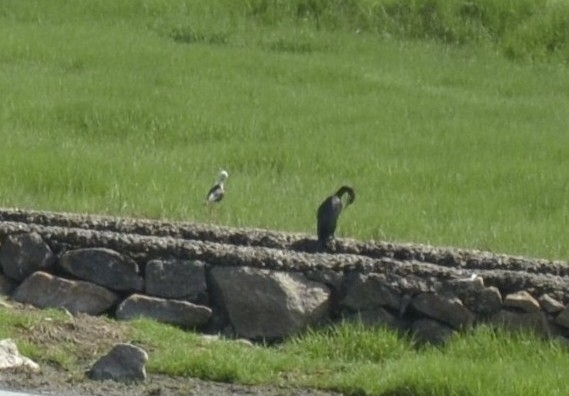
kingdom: Animalia
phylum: Chordata
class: Aves
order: Charadriiformes
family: Recurvirostridae
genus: Himantopus
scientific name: Himantopus himantopus
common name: Black-winged stilt
